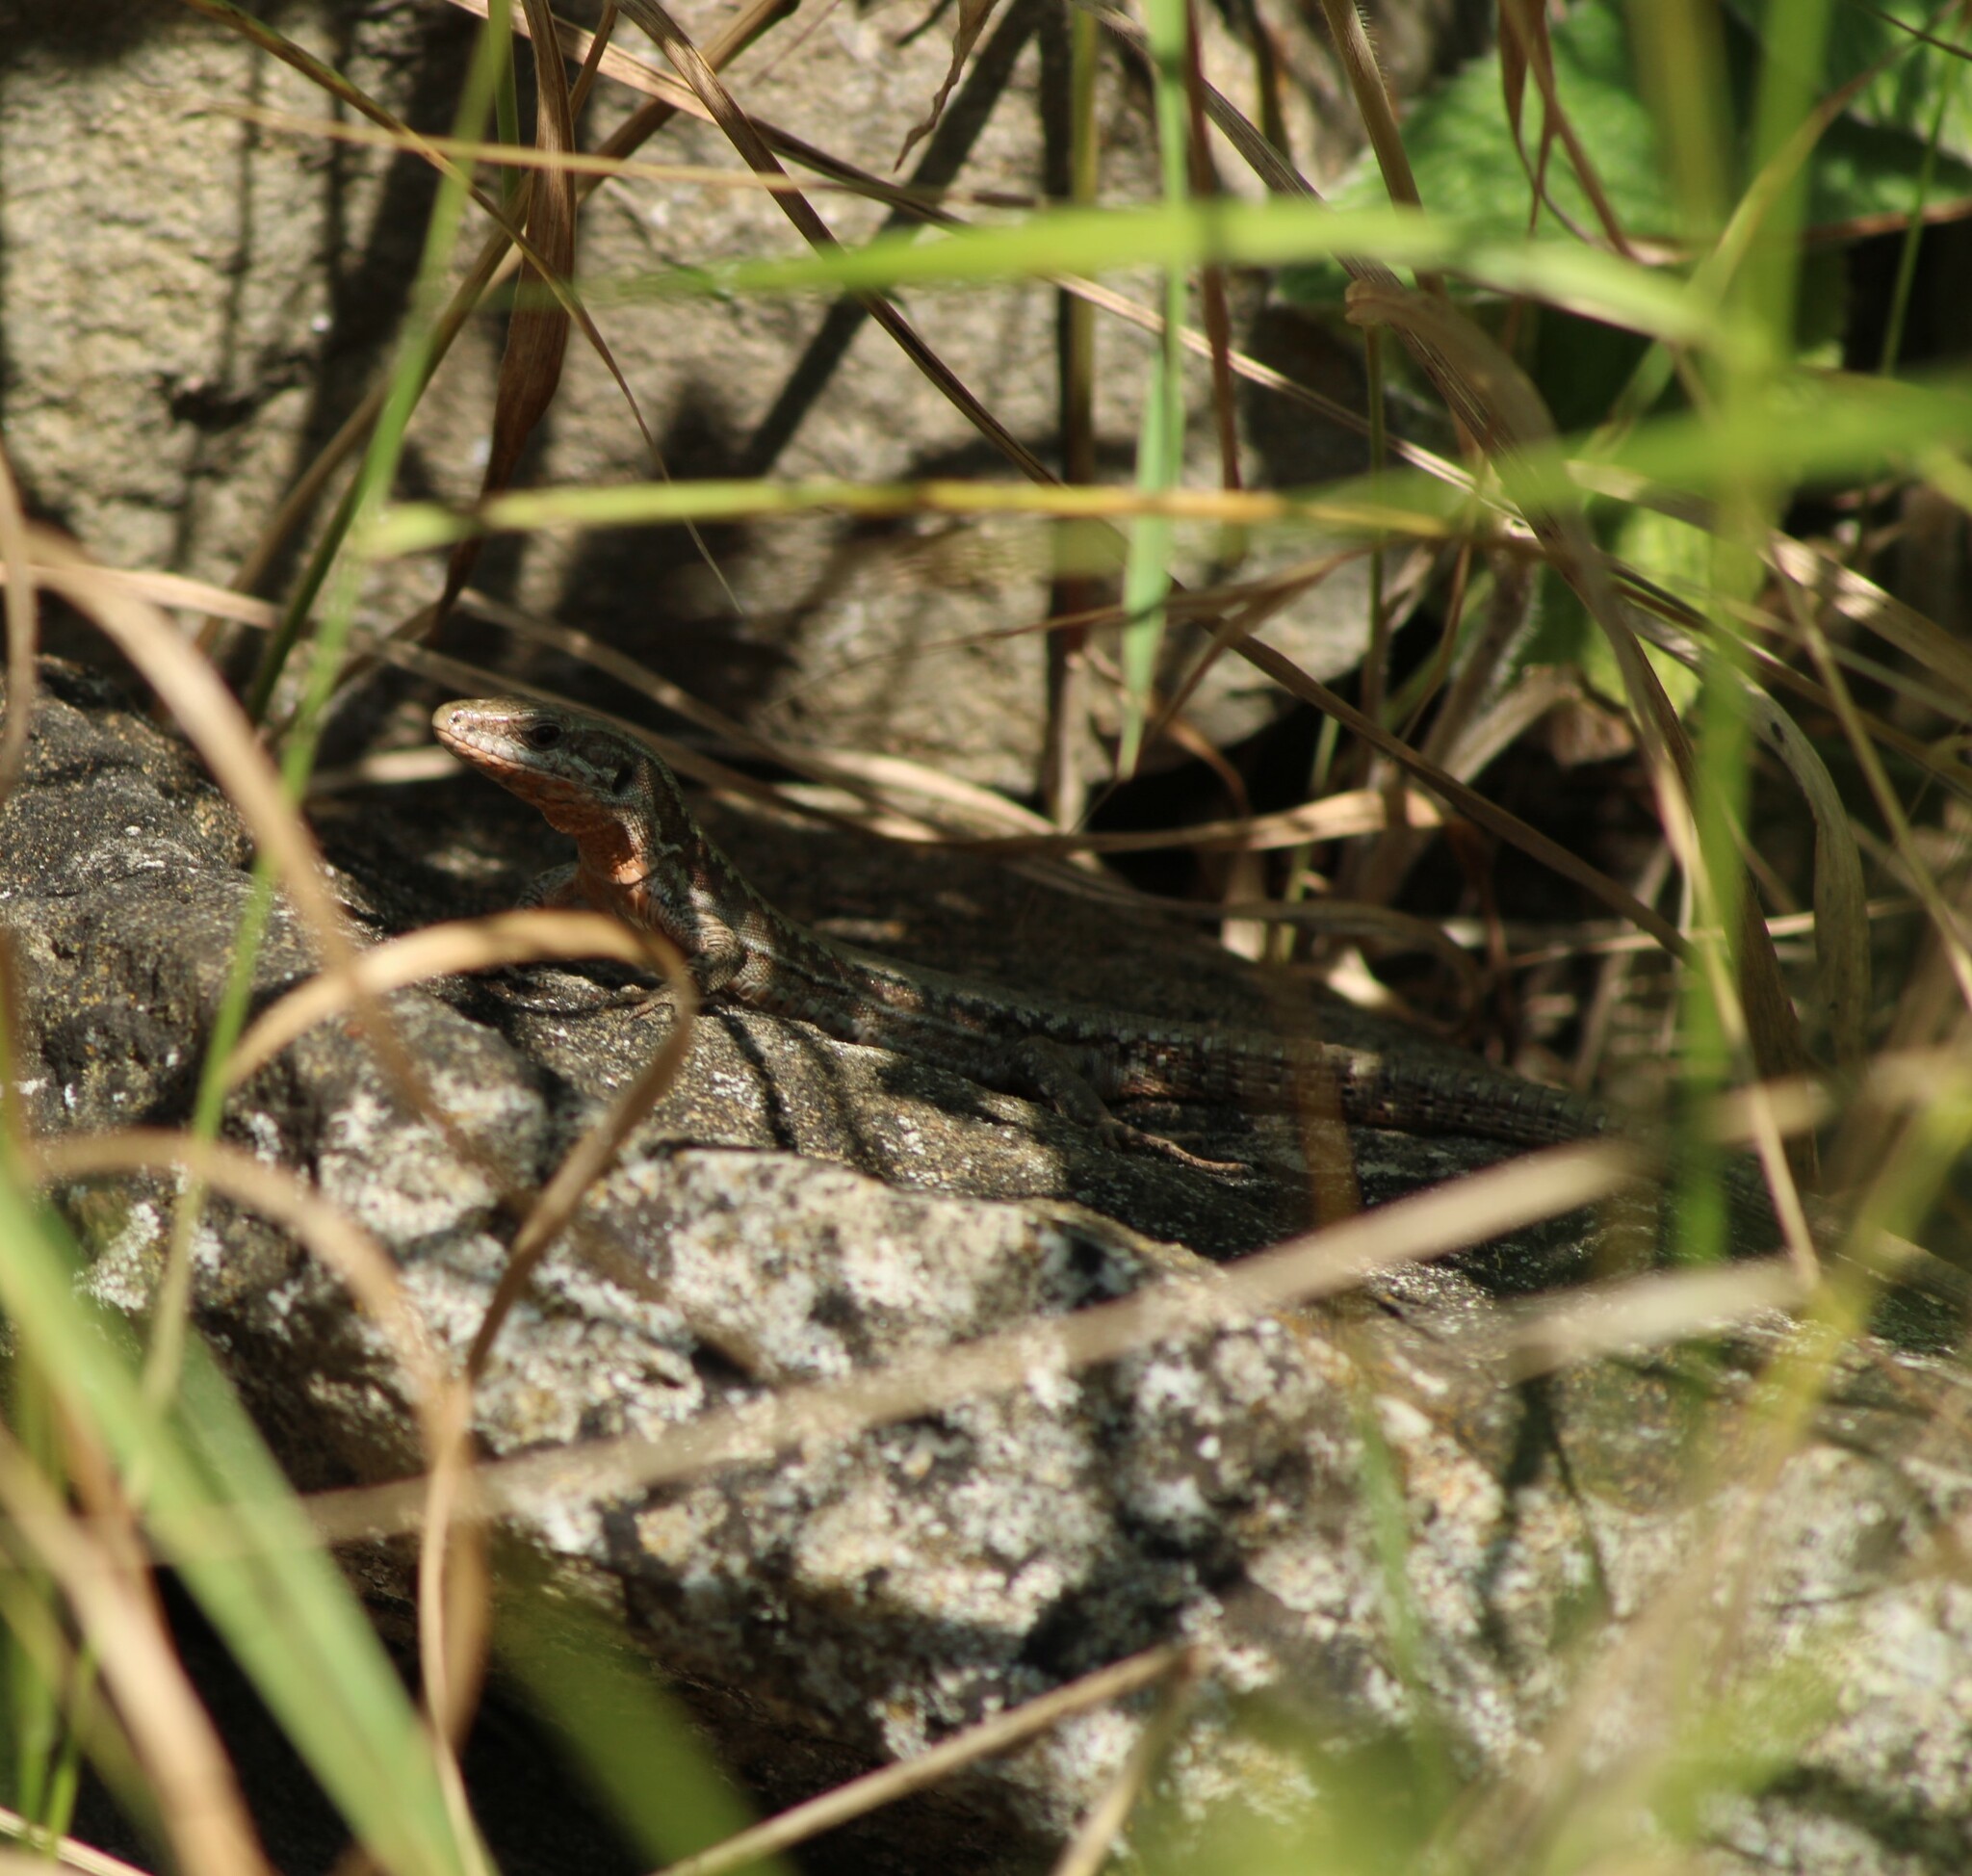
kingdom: Animalia
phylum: Chordata
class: Squamata
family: Lacertidae
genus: Podarcis
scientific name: Podarcis muralis
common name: Common wall lizard
